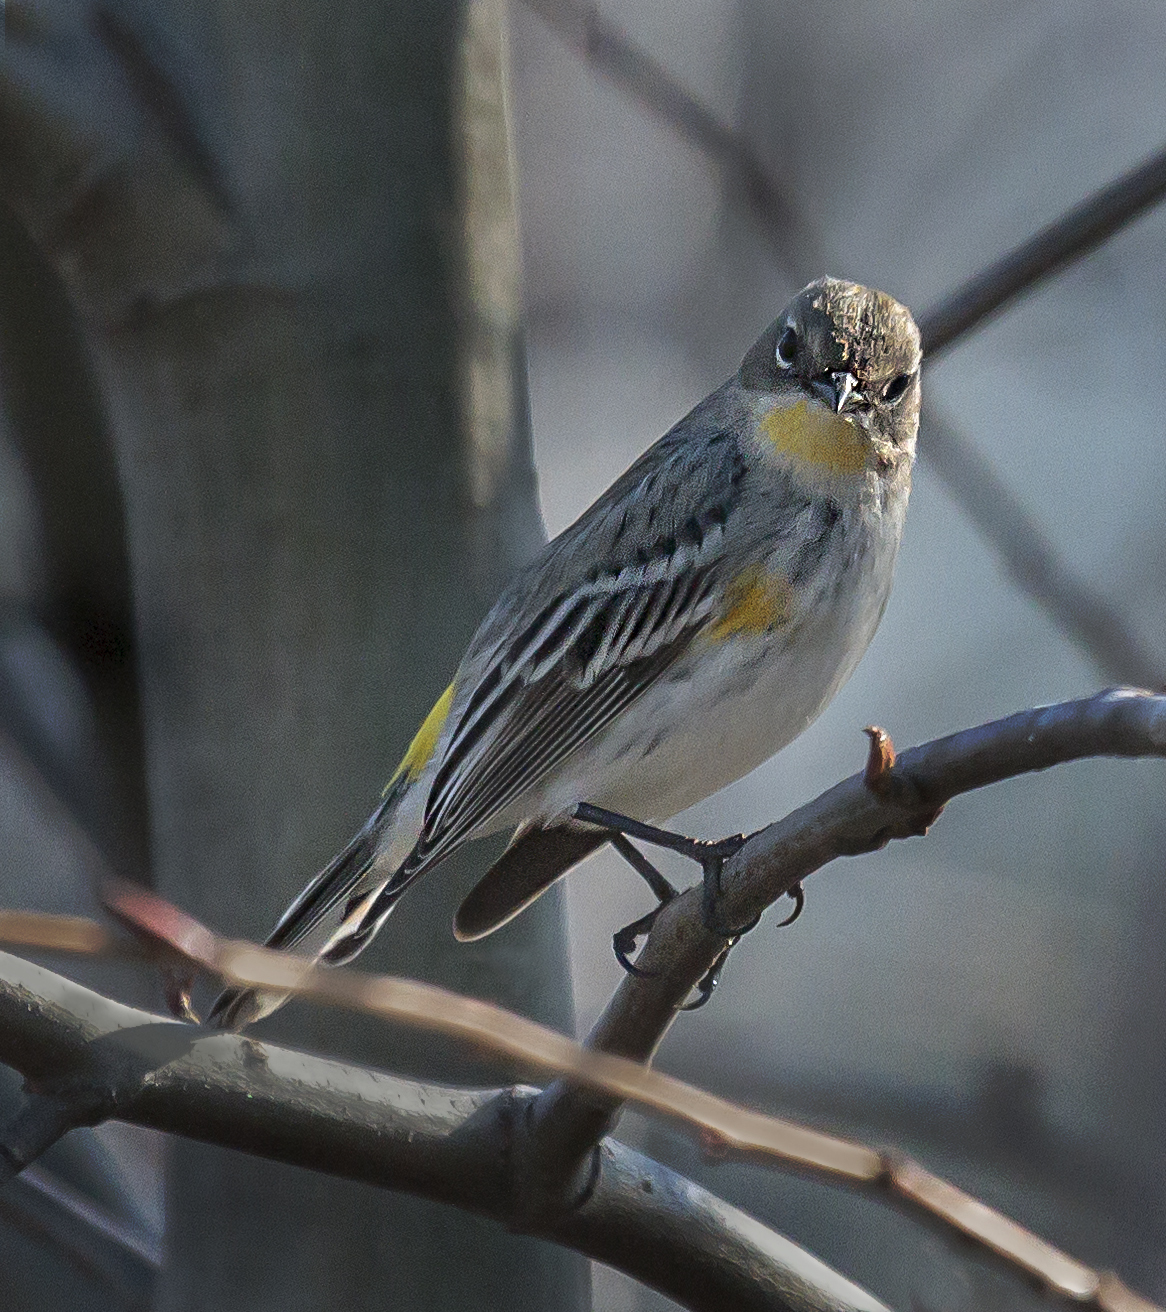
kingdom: Animalia
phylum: Chordata
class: Aves
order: Passeriformes
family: Parulidae
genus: Setophaga
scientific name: Setophaga coronata
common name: Myrtle warbler
